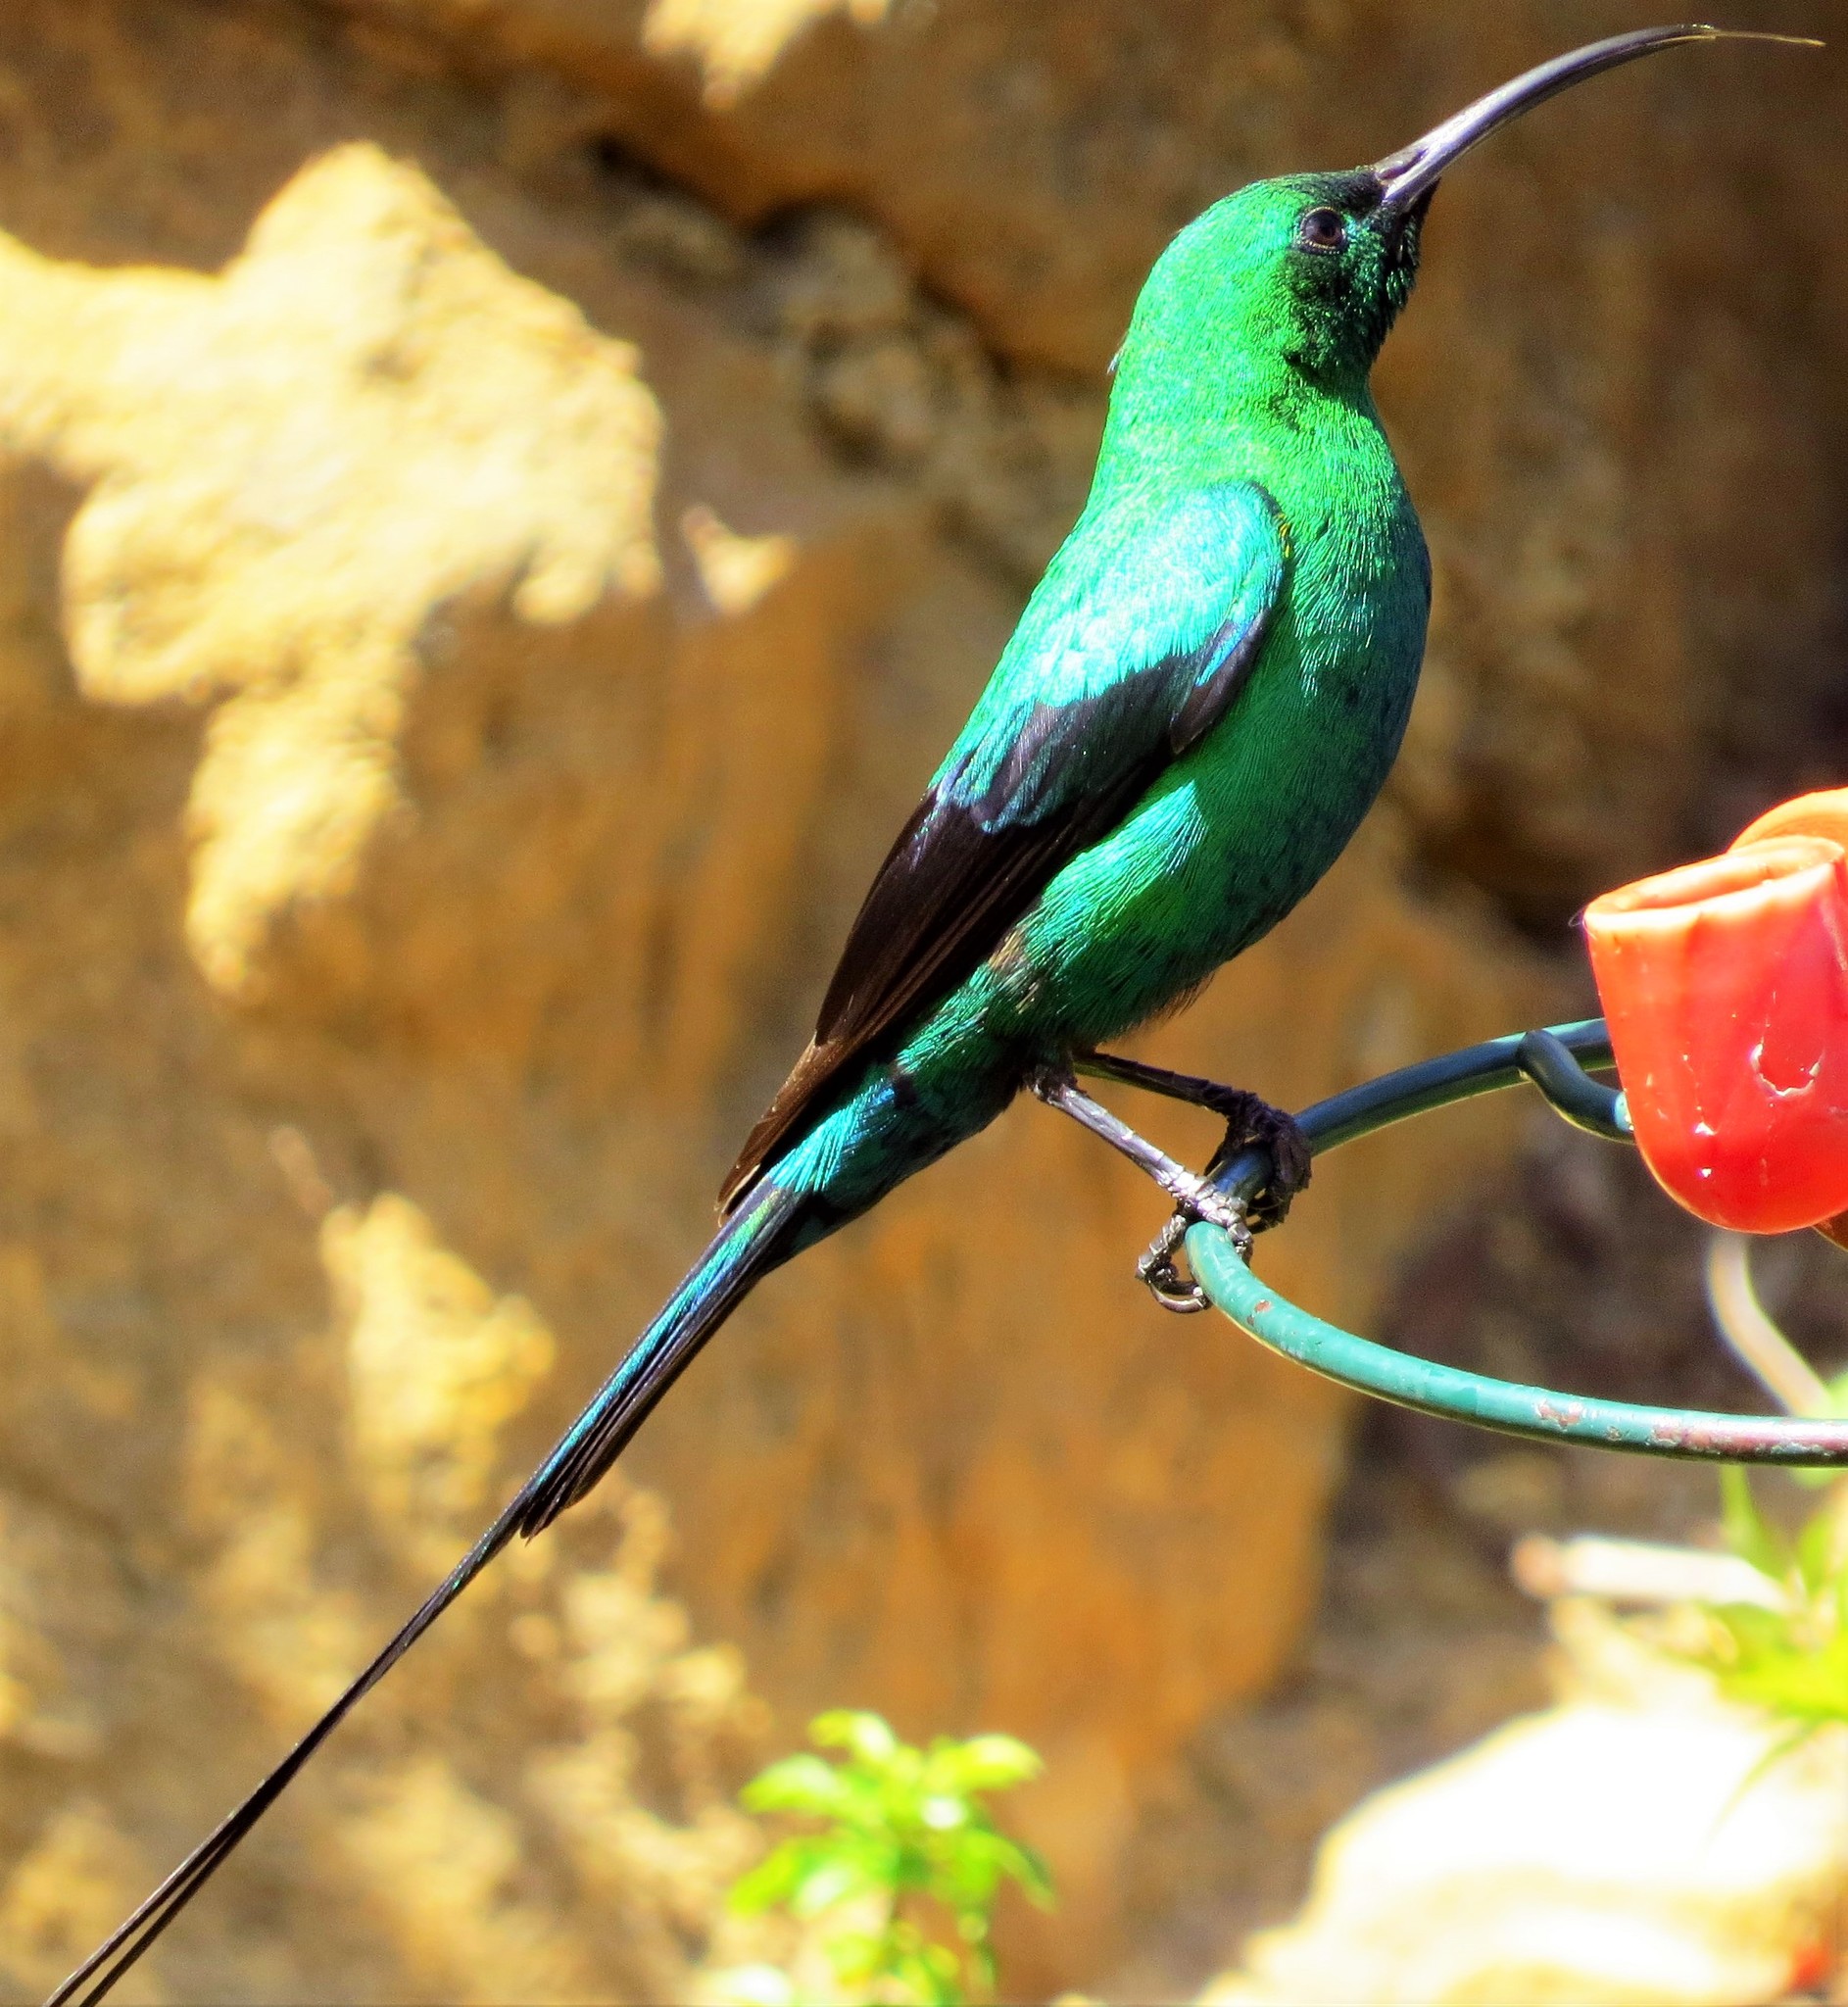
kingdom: Animalia
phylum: Chordata
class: Aves
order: Passeriformes
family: Nectariniidae
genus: Nectarinia
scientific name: Nectarinia famosa
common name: Malachite sunbird
